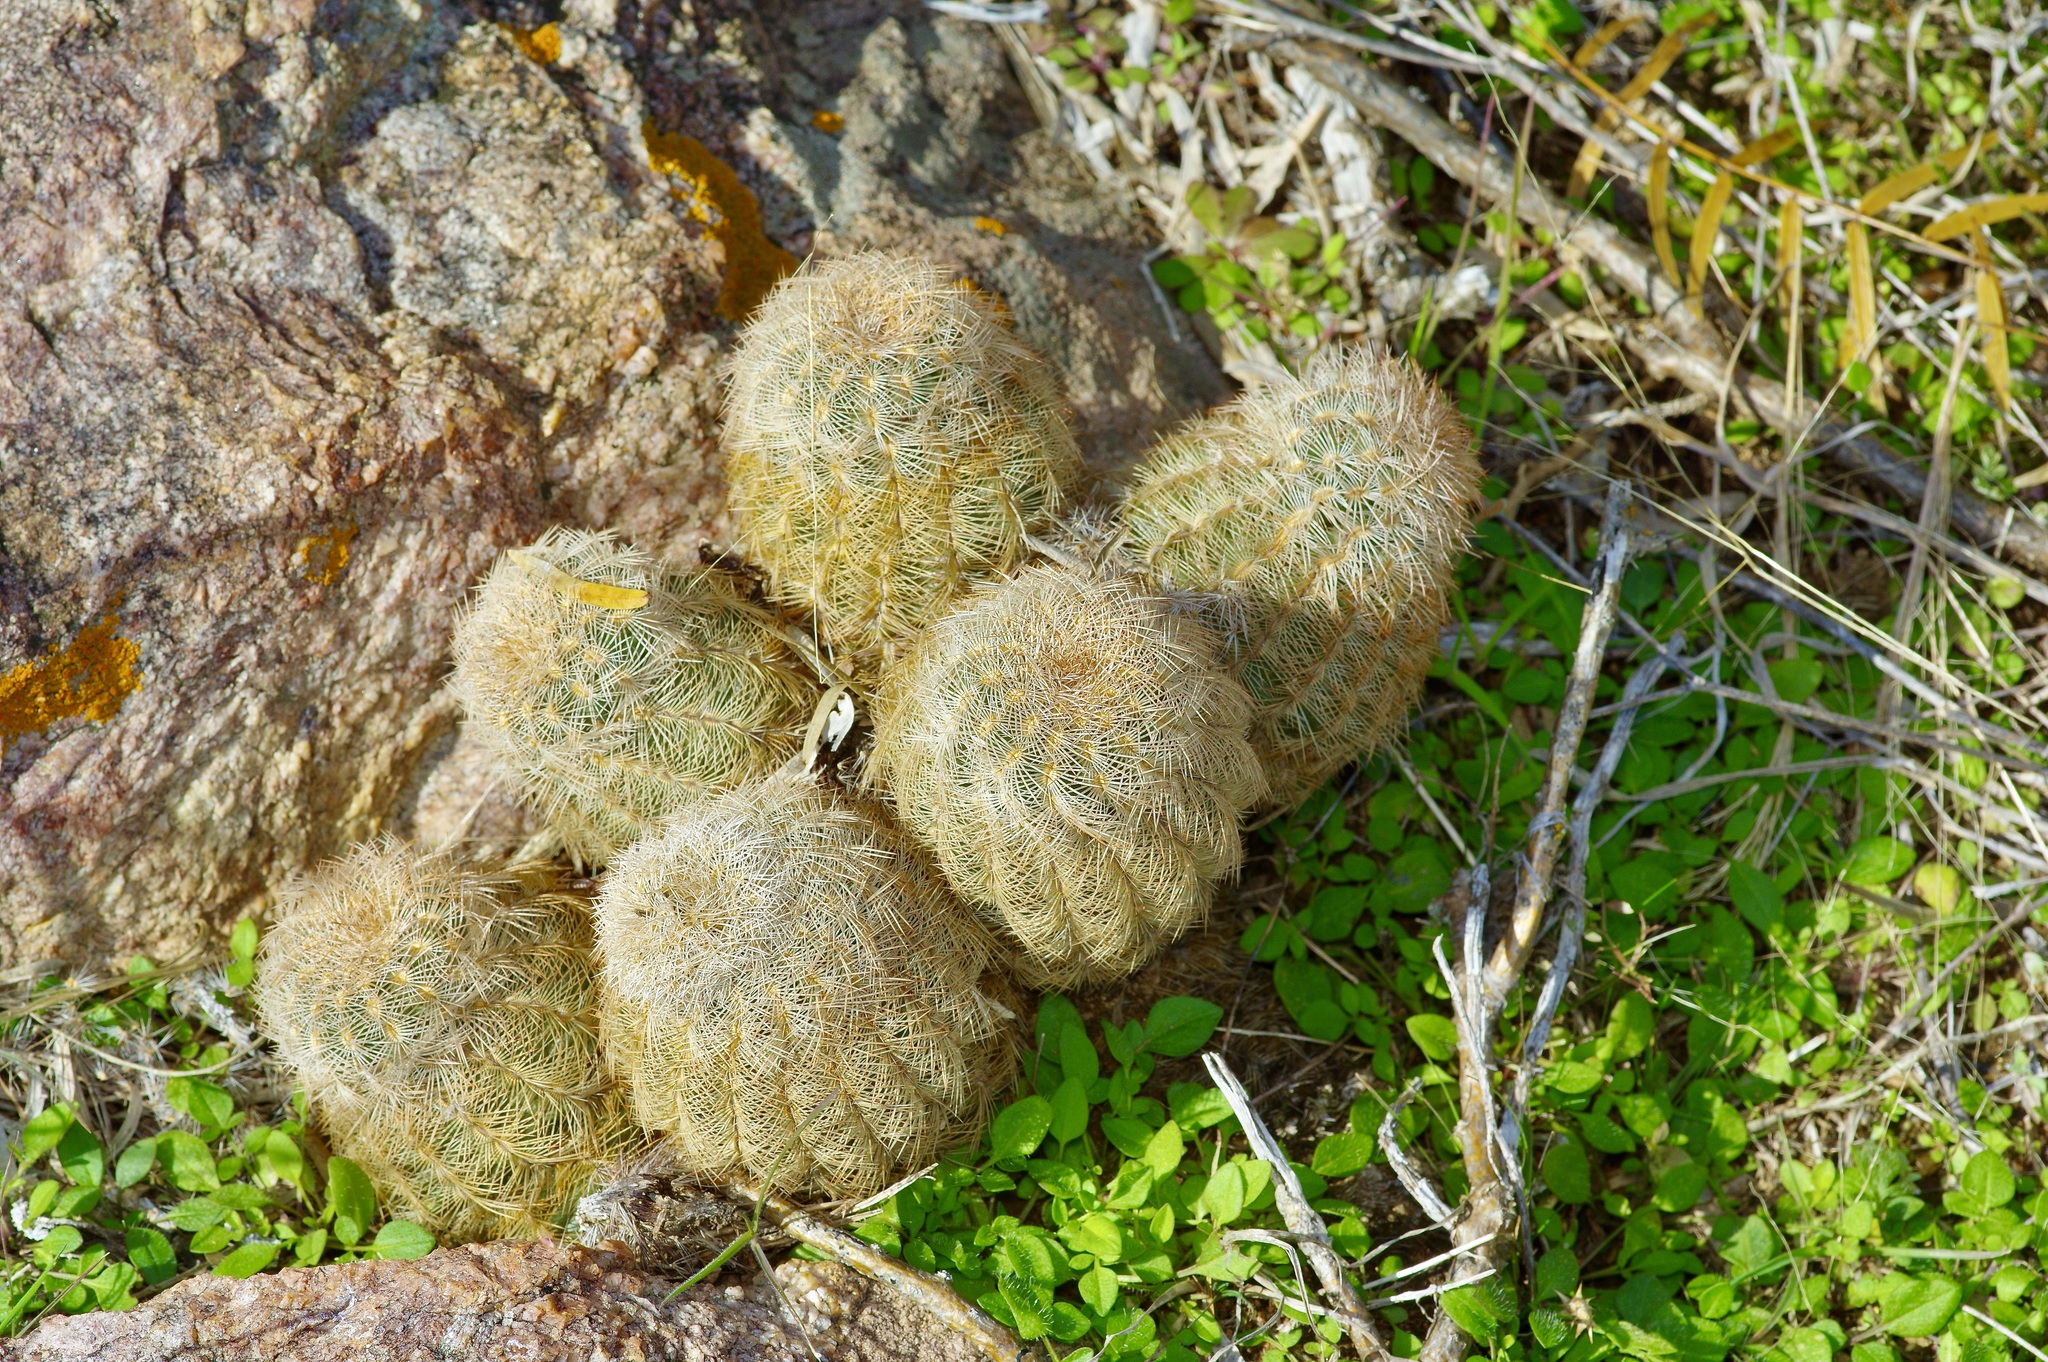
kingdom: Plantae
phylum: Tracheophyta
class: Magnoliopsida
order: Caryophyllales
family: Cactaceae
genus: Echinocereus
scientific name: Echinocereus reichenbachii
